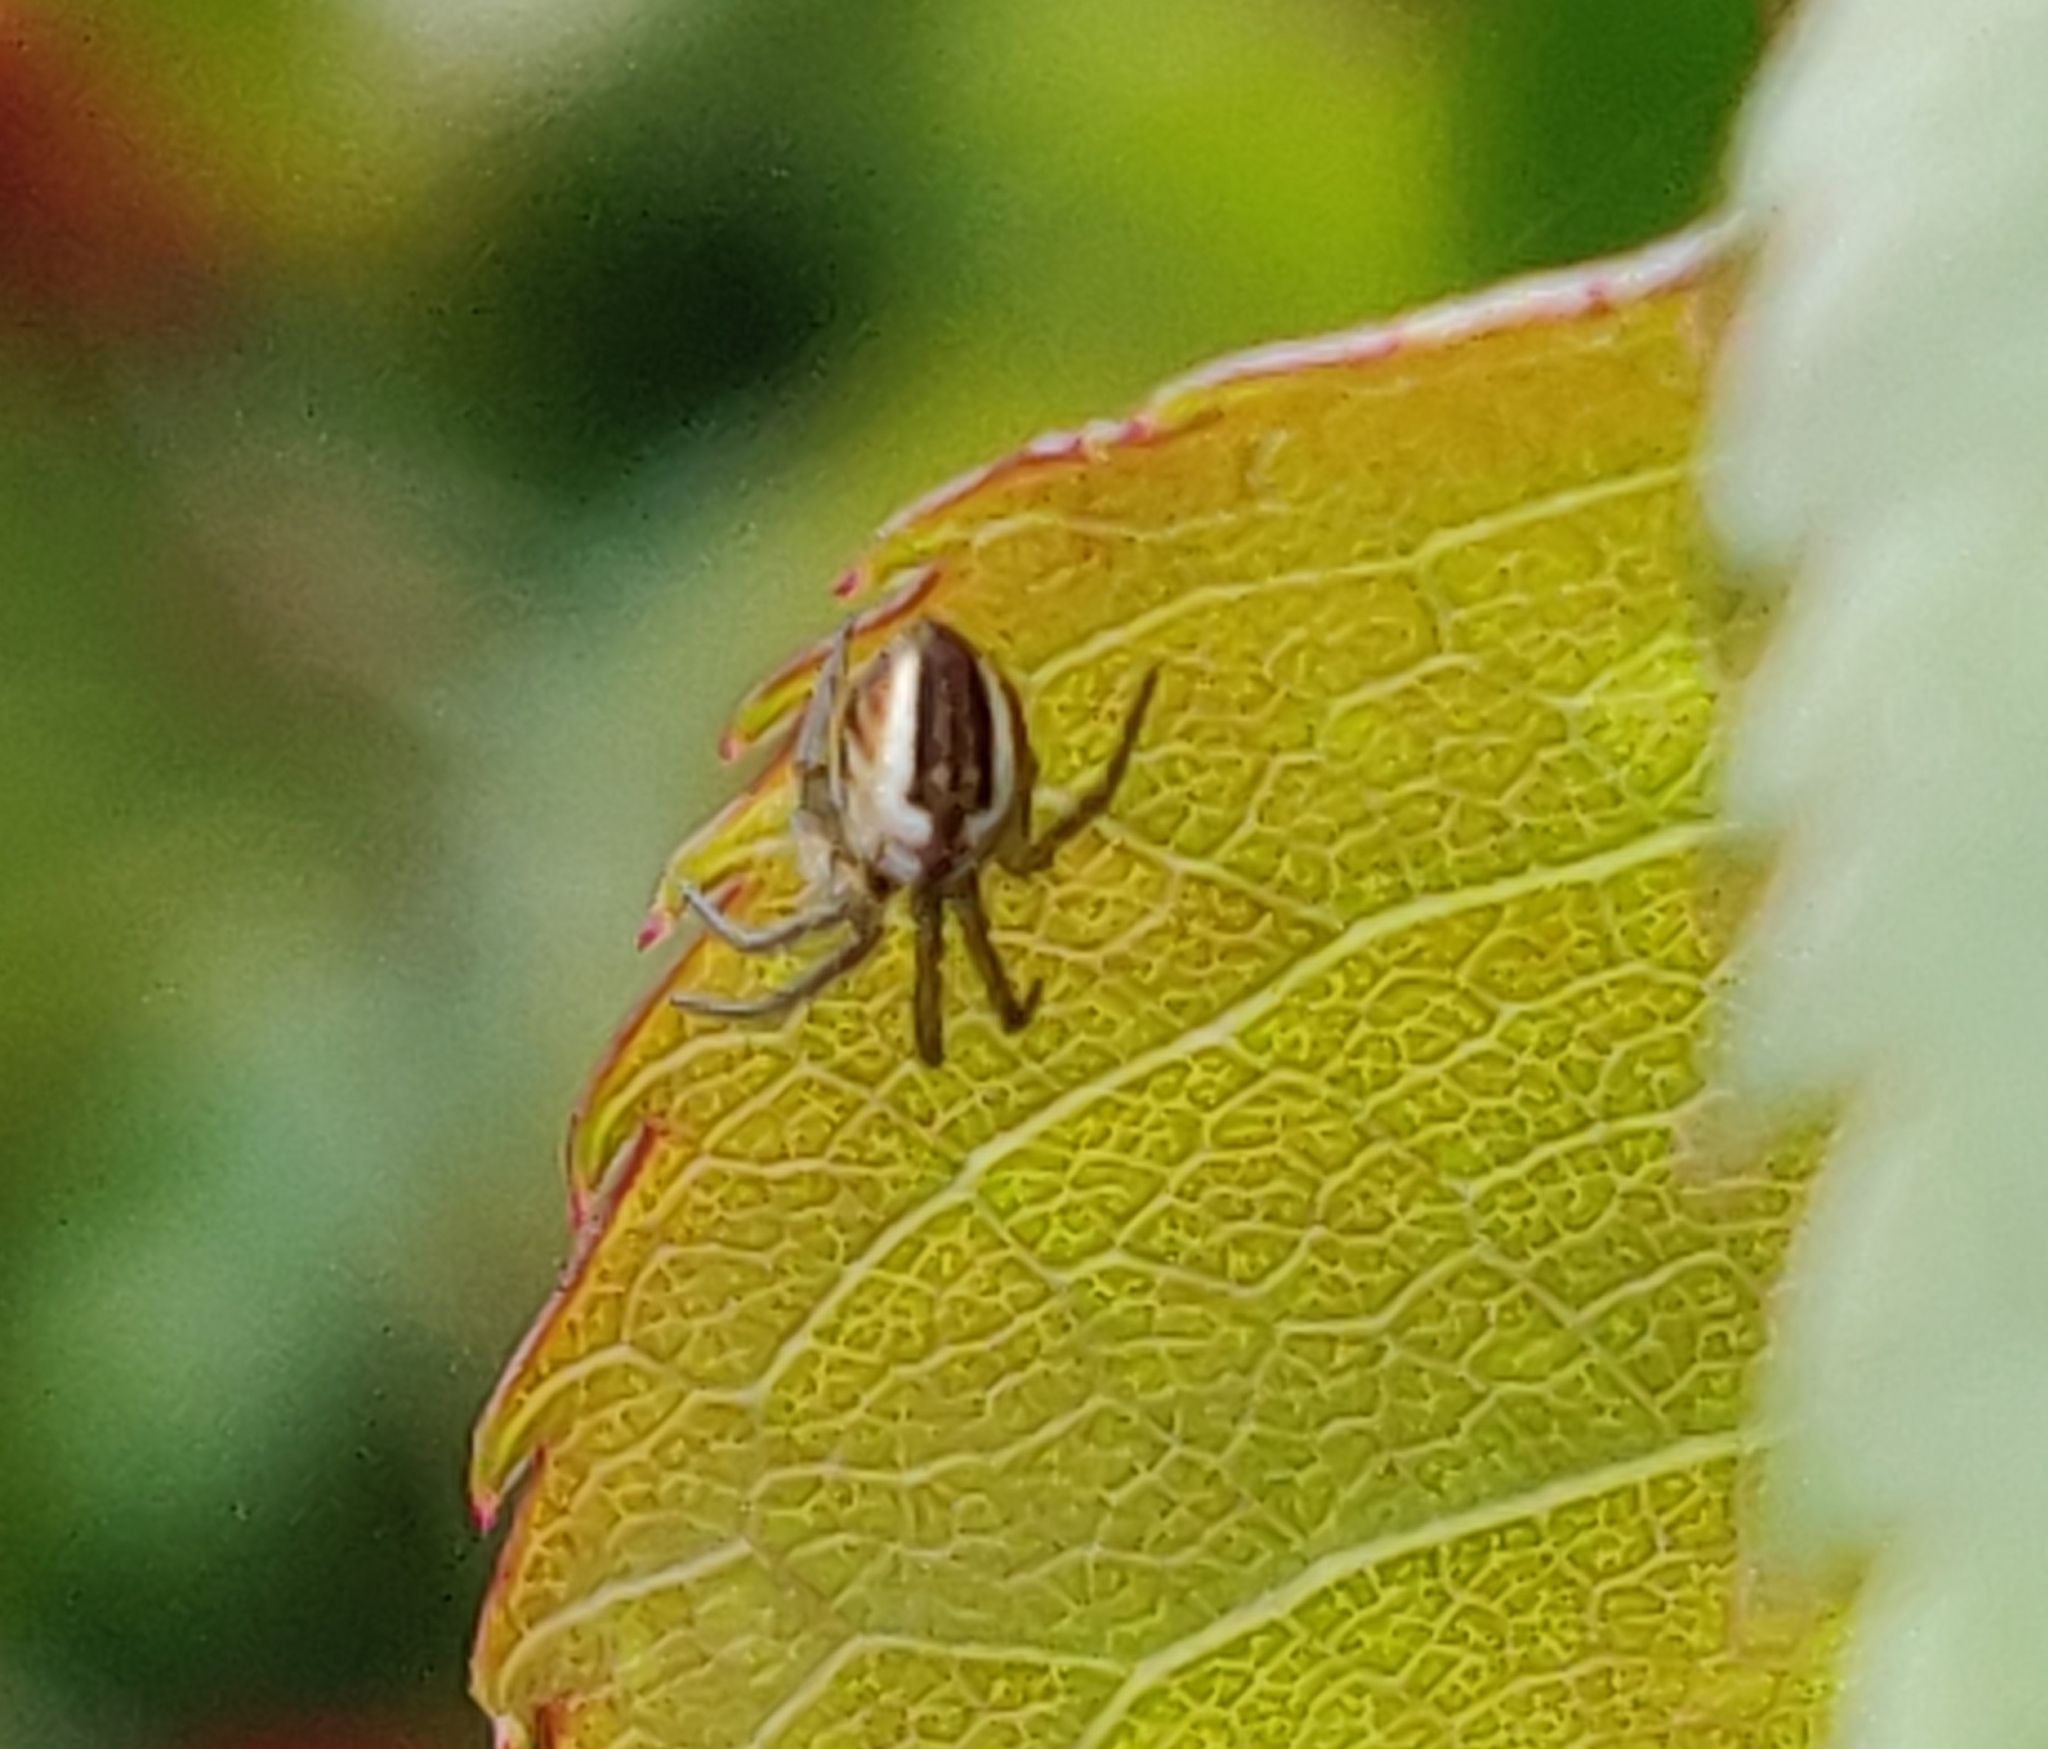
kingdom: Animalia
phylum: Arthropoda
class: Arachnida
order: Araneae
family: Araneidae
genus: Mangora
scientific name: Mangora acalypha
